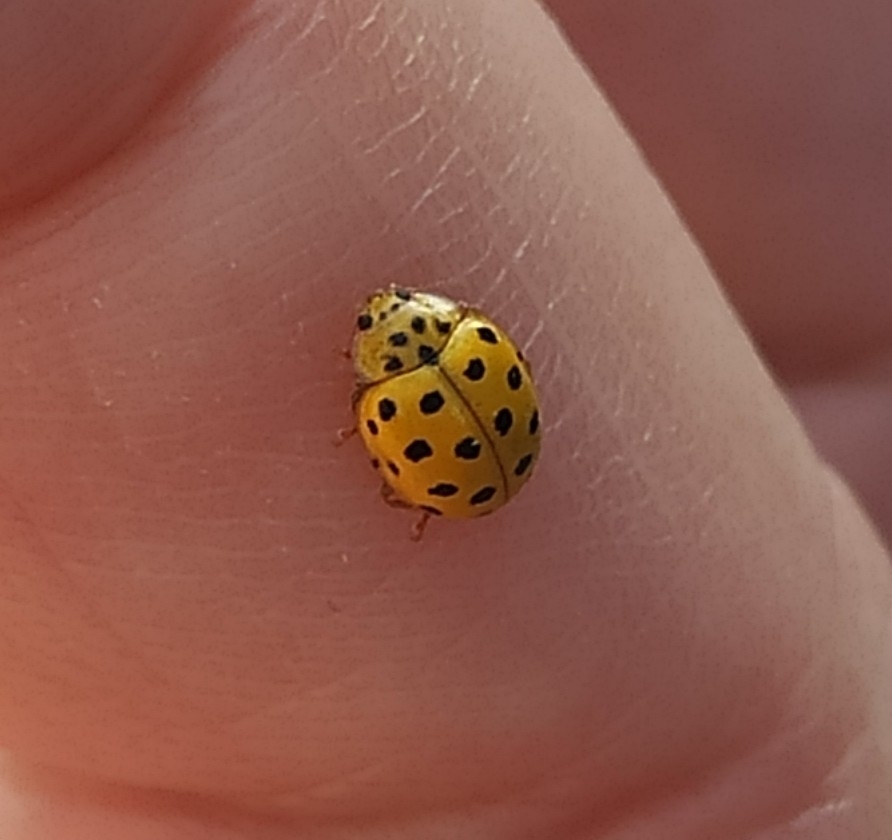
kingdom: Animalia
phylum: Arthropoda
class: Insecta
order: Coleoptera
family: Coccinellidae
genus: Psyllobora
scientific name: Psyllobora vigintiduopunctata
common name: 22-spot ladybird
